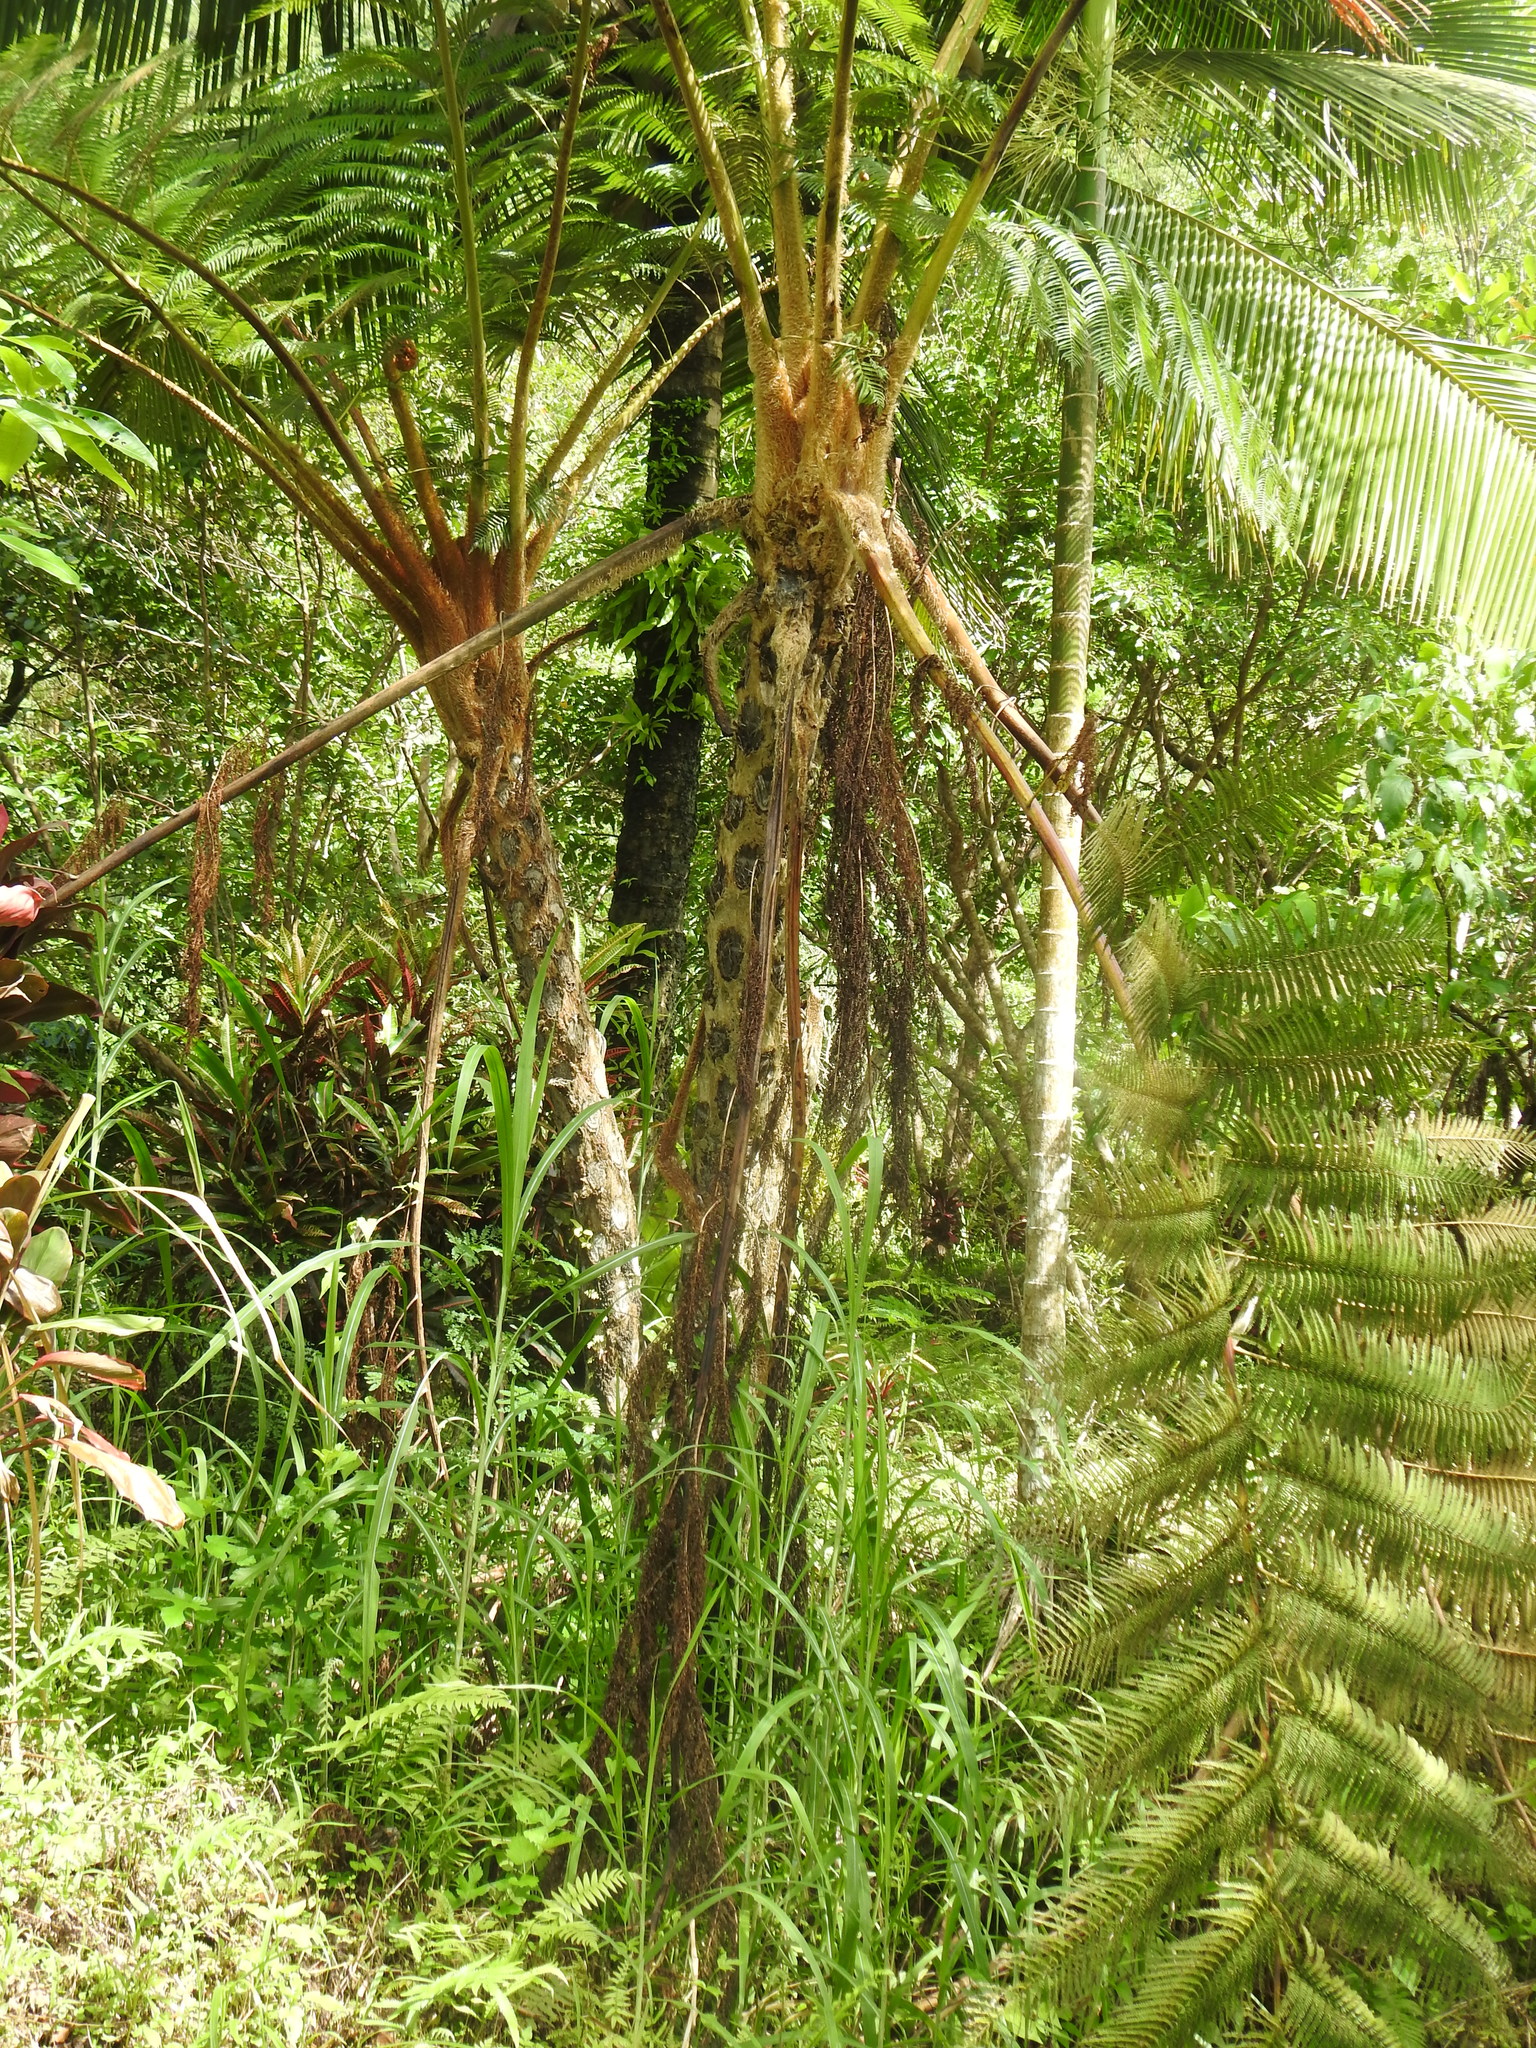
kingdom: Plantae
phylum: Tracheophyta
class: Polypodiopsida
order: Cyatheales
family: Cyatheaceae
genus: Alsophila
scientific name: Alsophila lepifera
